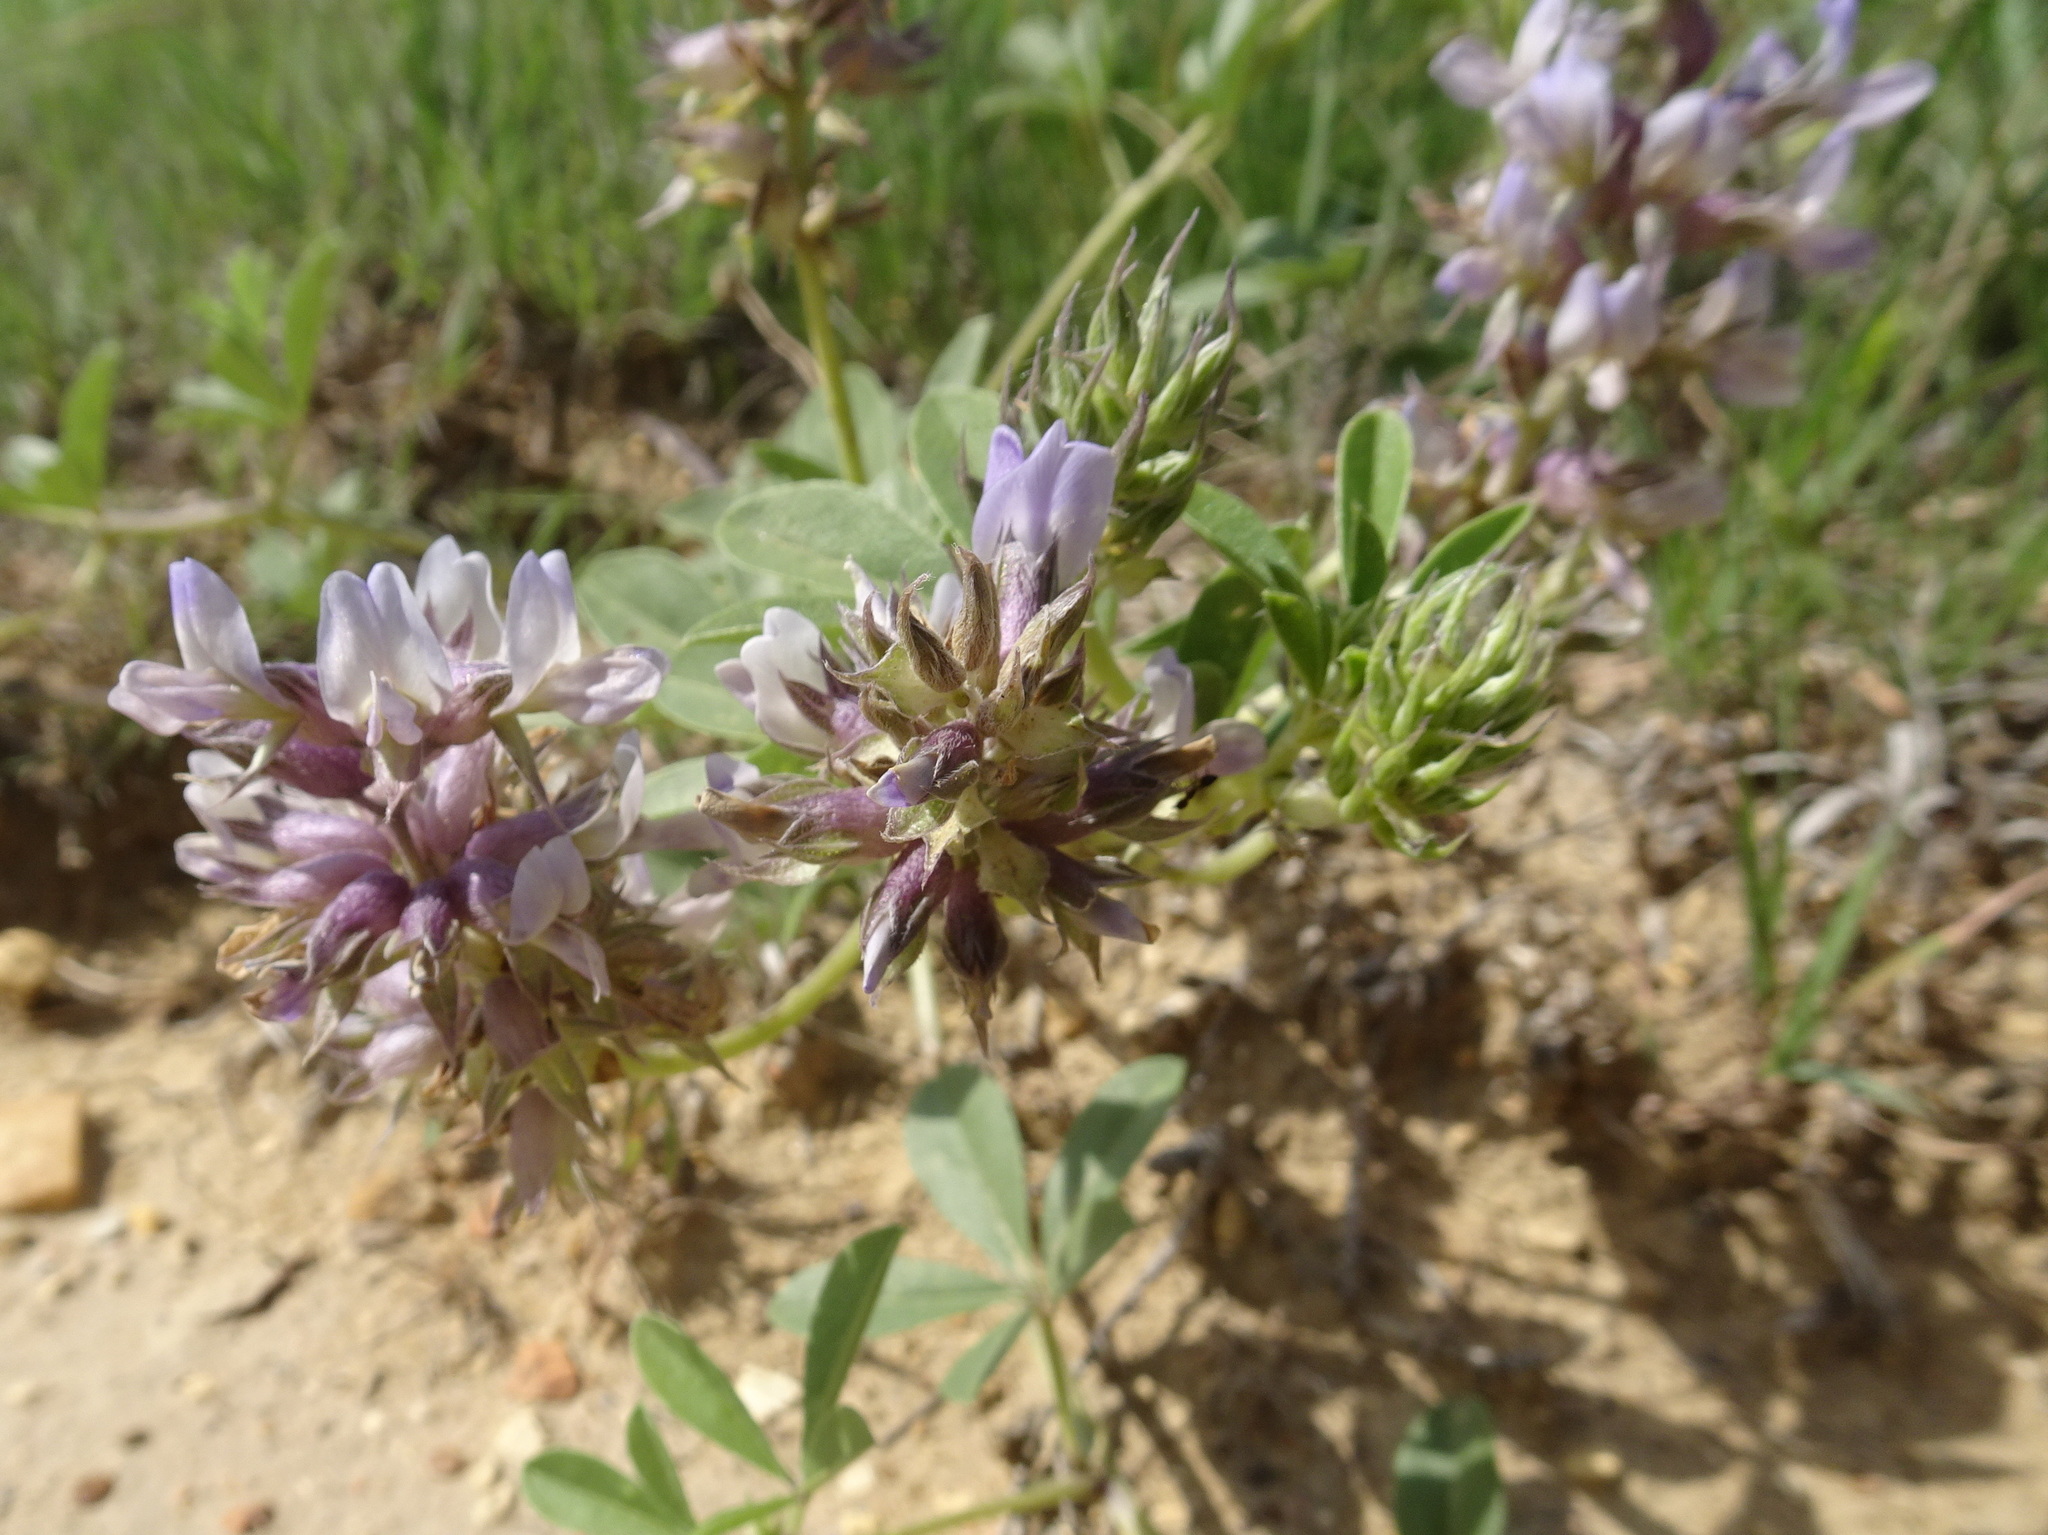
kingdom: Plantae
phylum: Tracheophyta
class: Magnoliopsida
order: Fabales
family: Fabaceae
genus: Pediomelum
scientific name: Pediomelum cuspidatum
